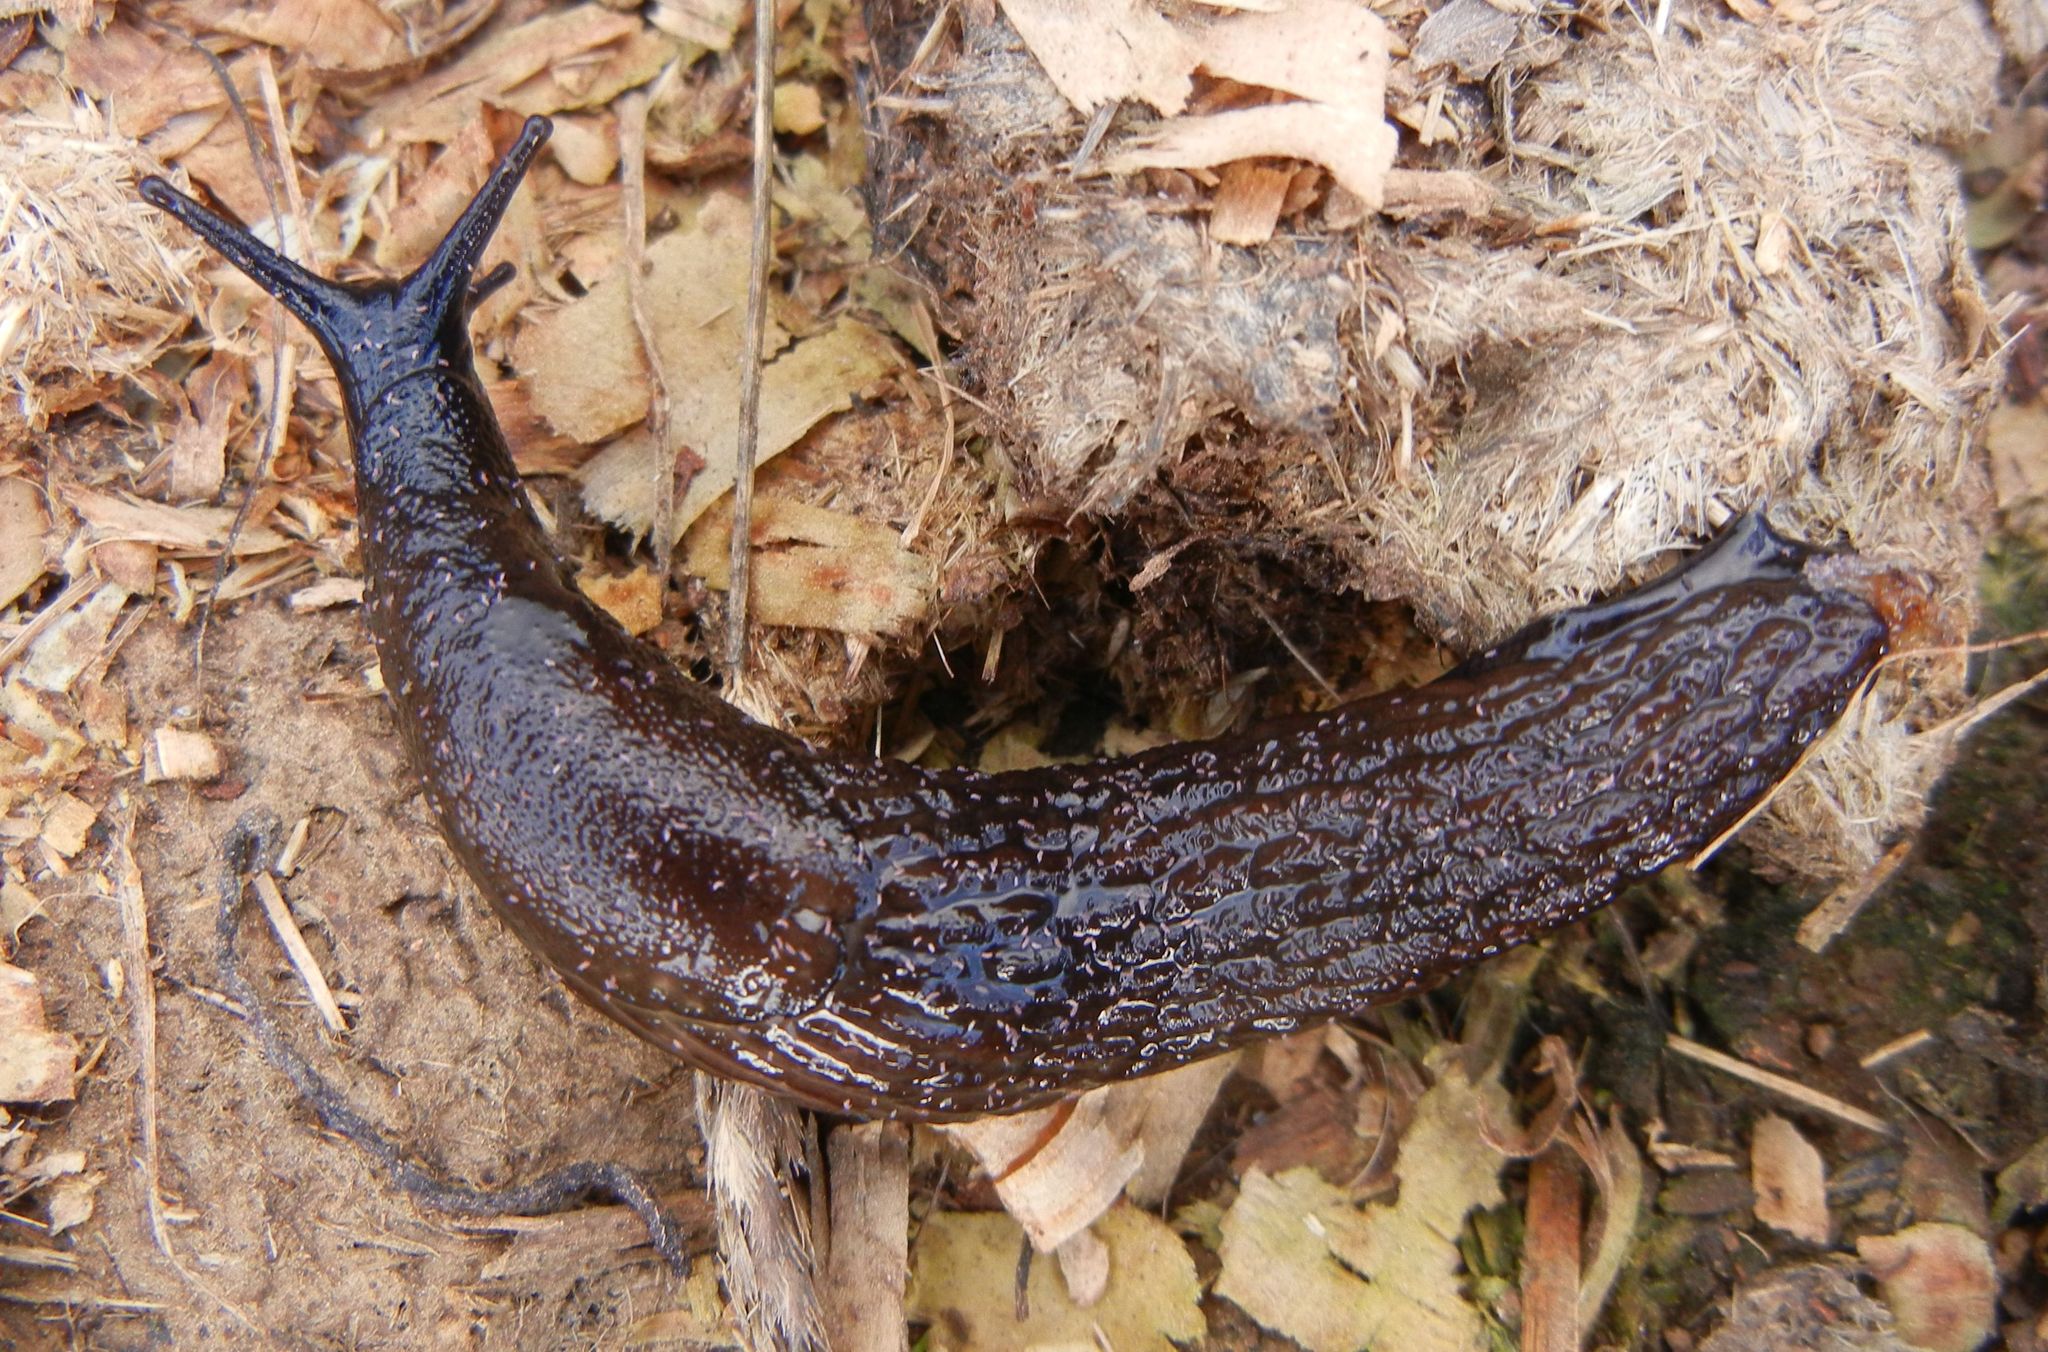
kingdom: Animalia
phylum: Mollusca
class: Gastropoda
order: Stylommatophora
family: Arionidae
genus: Arion
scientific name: Arion
